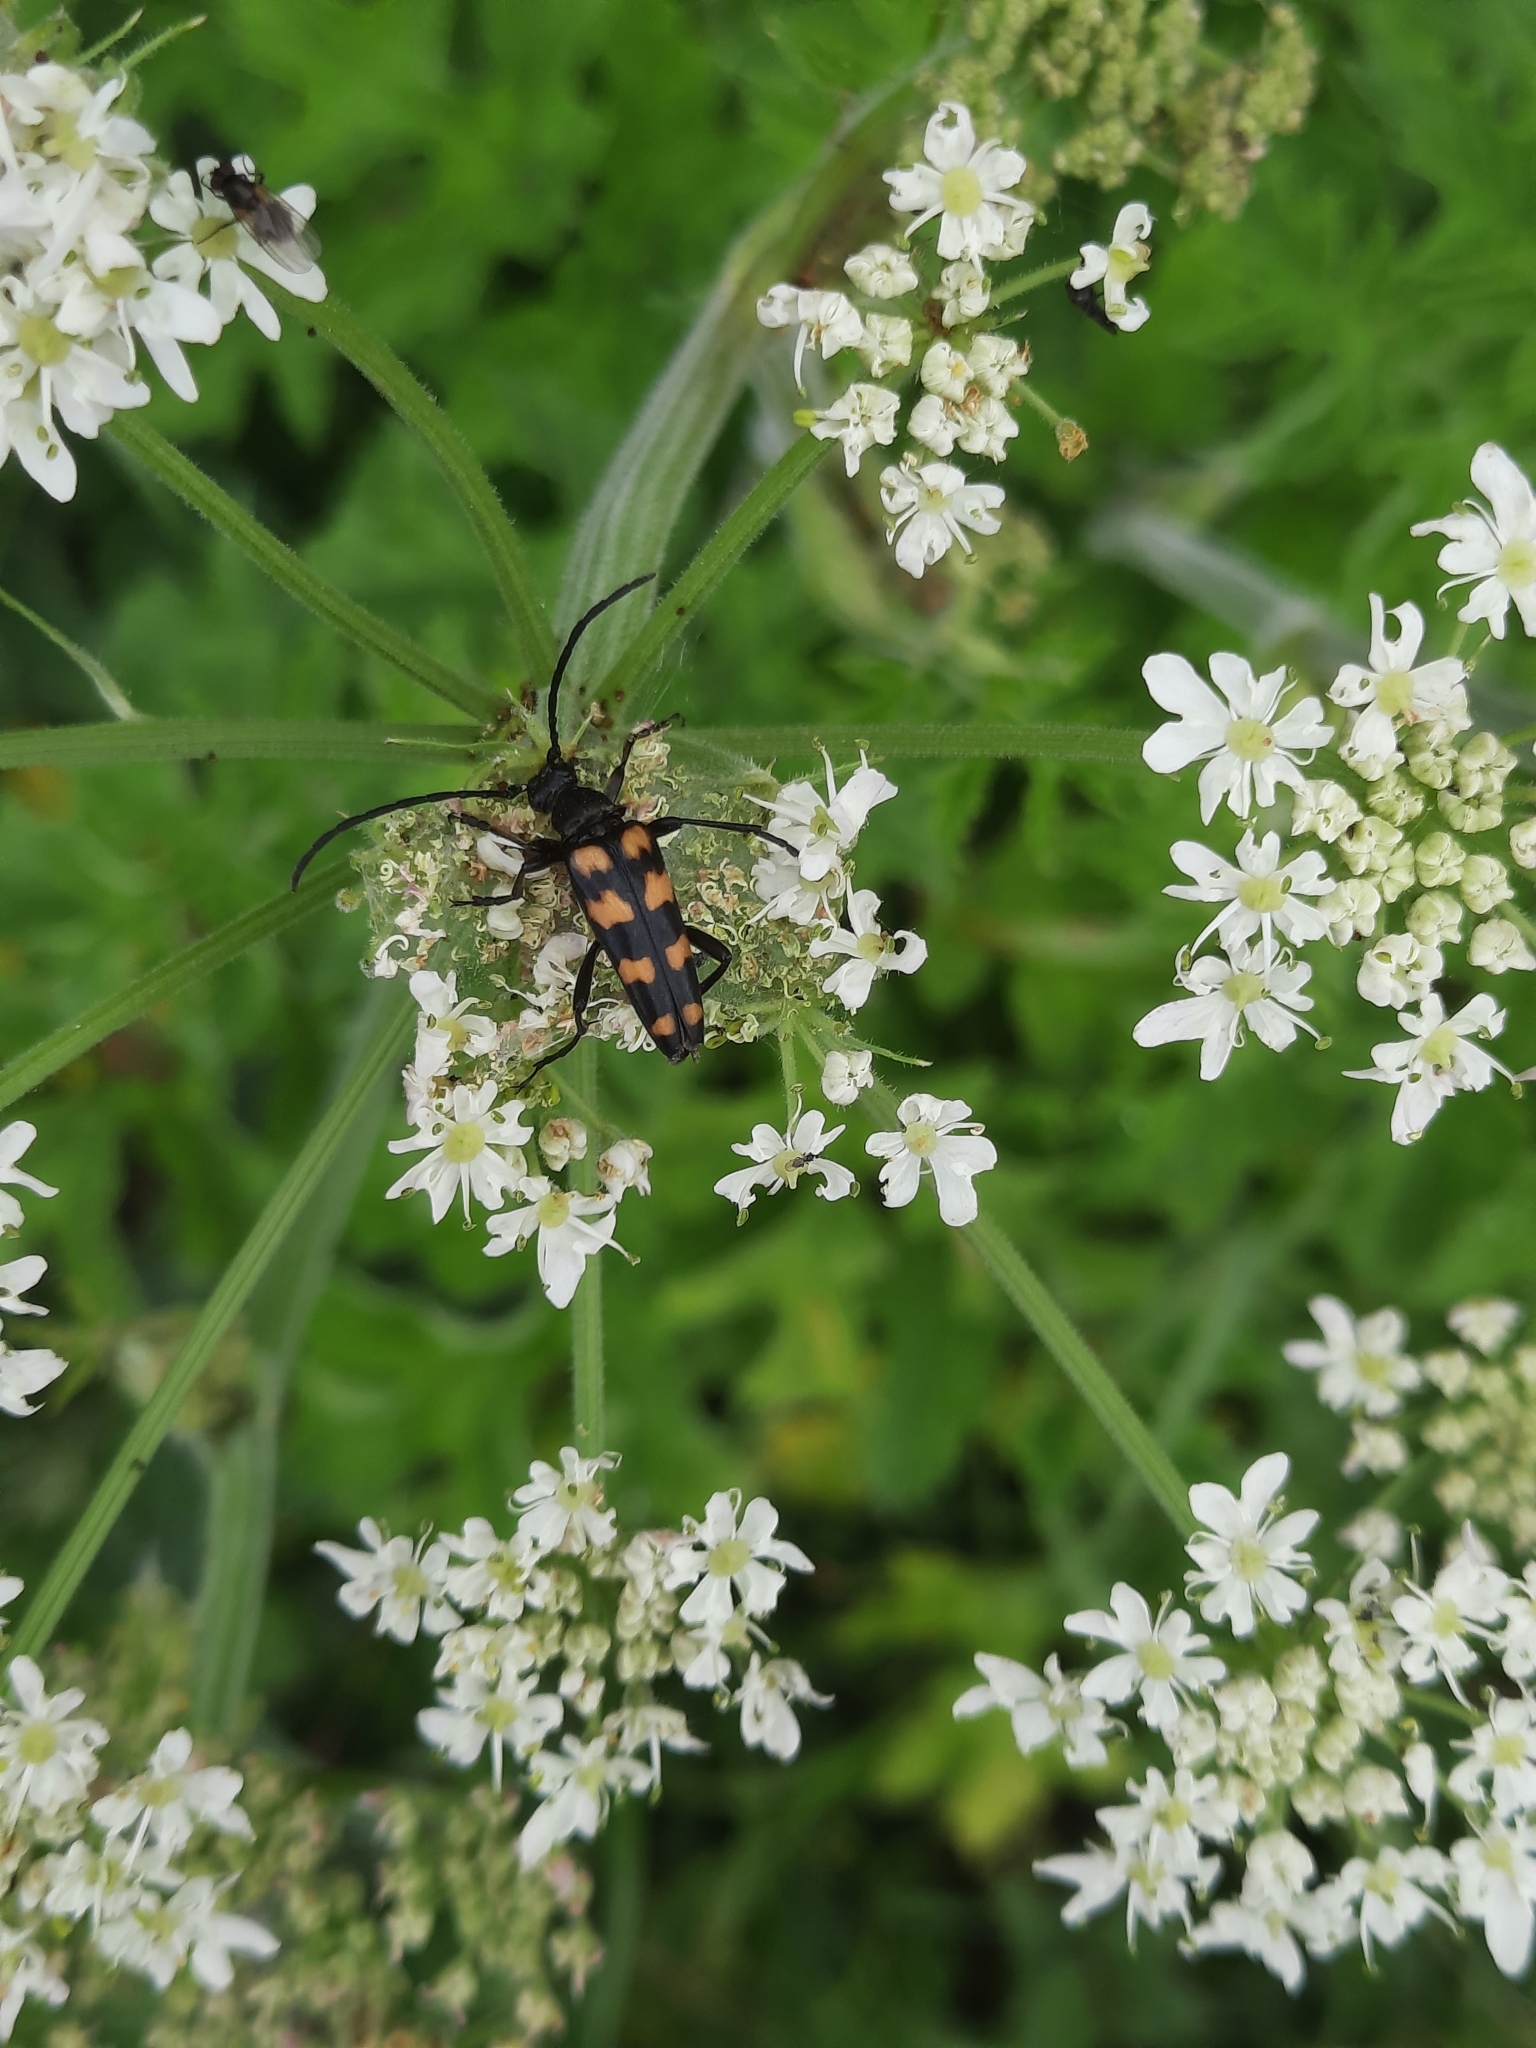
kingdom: Animalia
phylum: Arthropoda
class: Insecta
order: Coleoptera
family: Cerambycidae
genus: Leptura
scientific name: Leptura quadrifasciata
